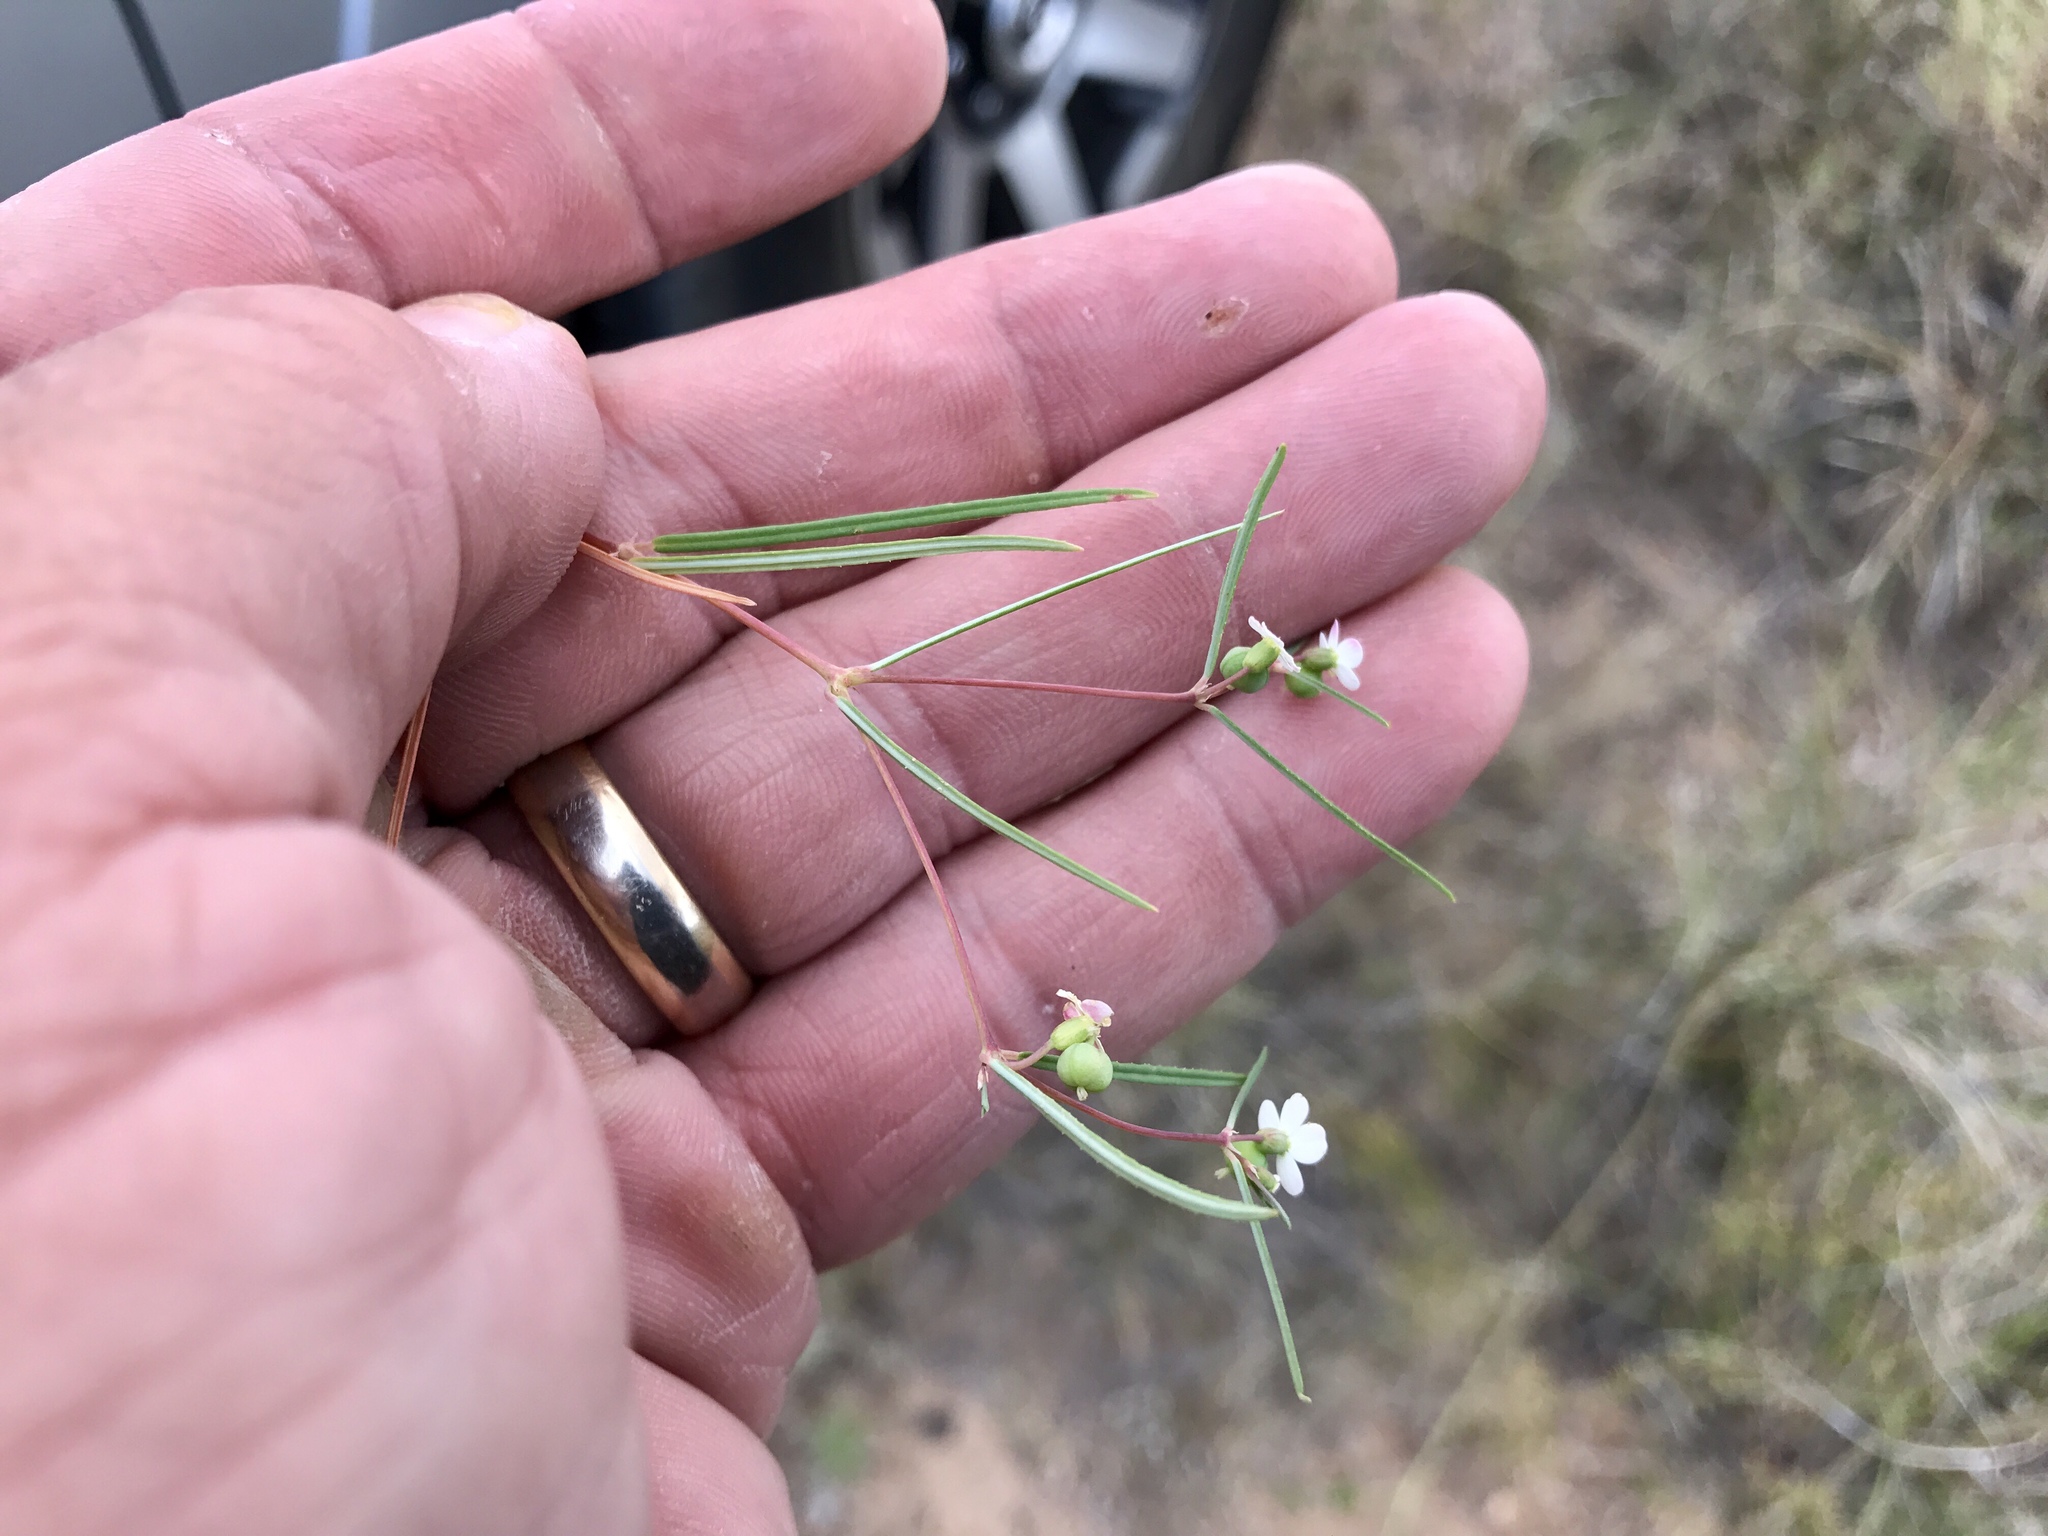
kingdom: Plantae
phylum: Tracheophyta
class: Magnoliopsida
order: Malpighiales
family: Euphorbiaceae
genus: Euphorbia
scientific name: Euphorbia florida
